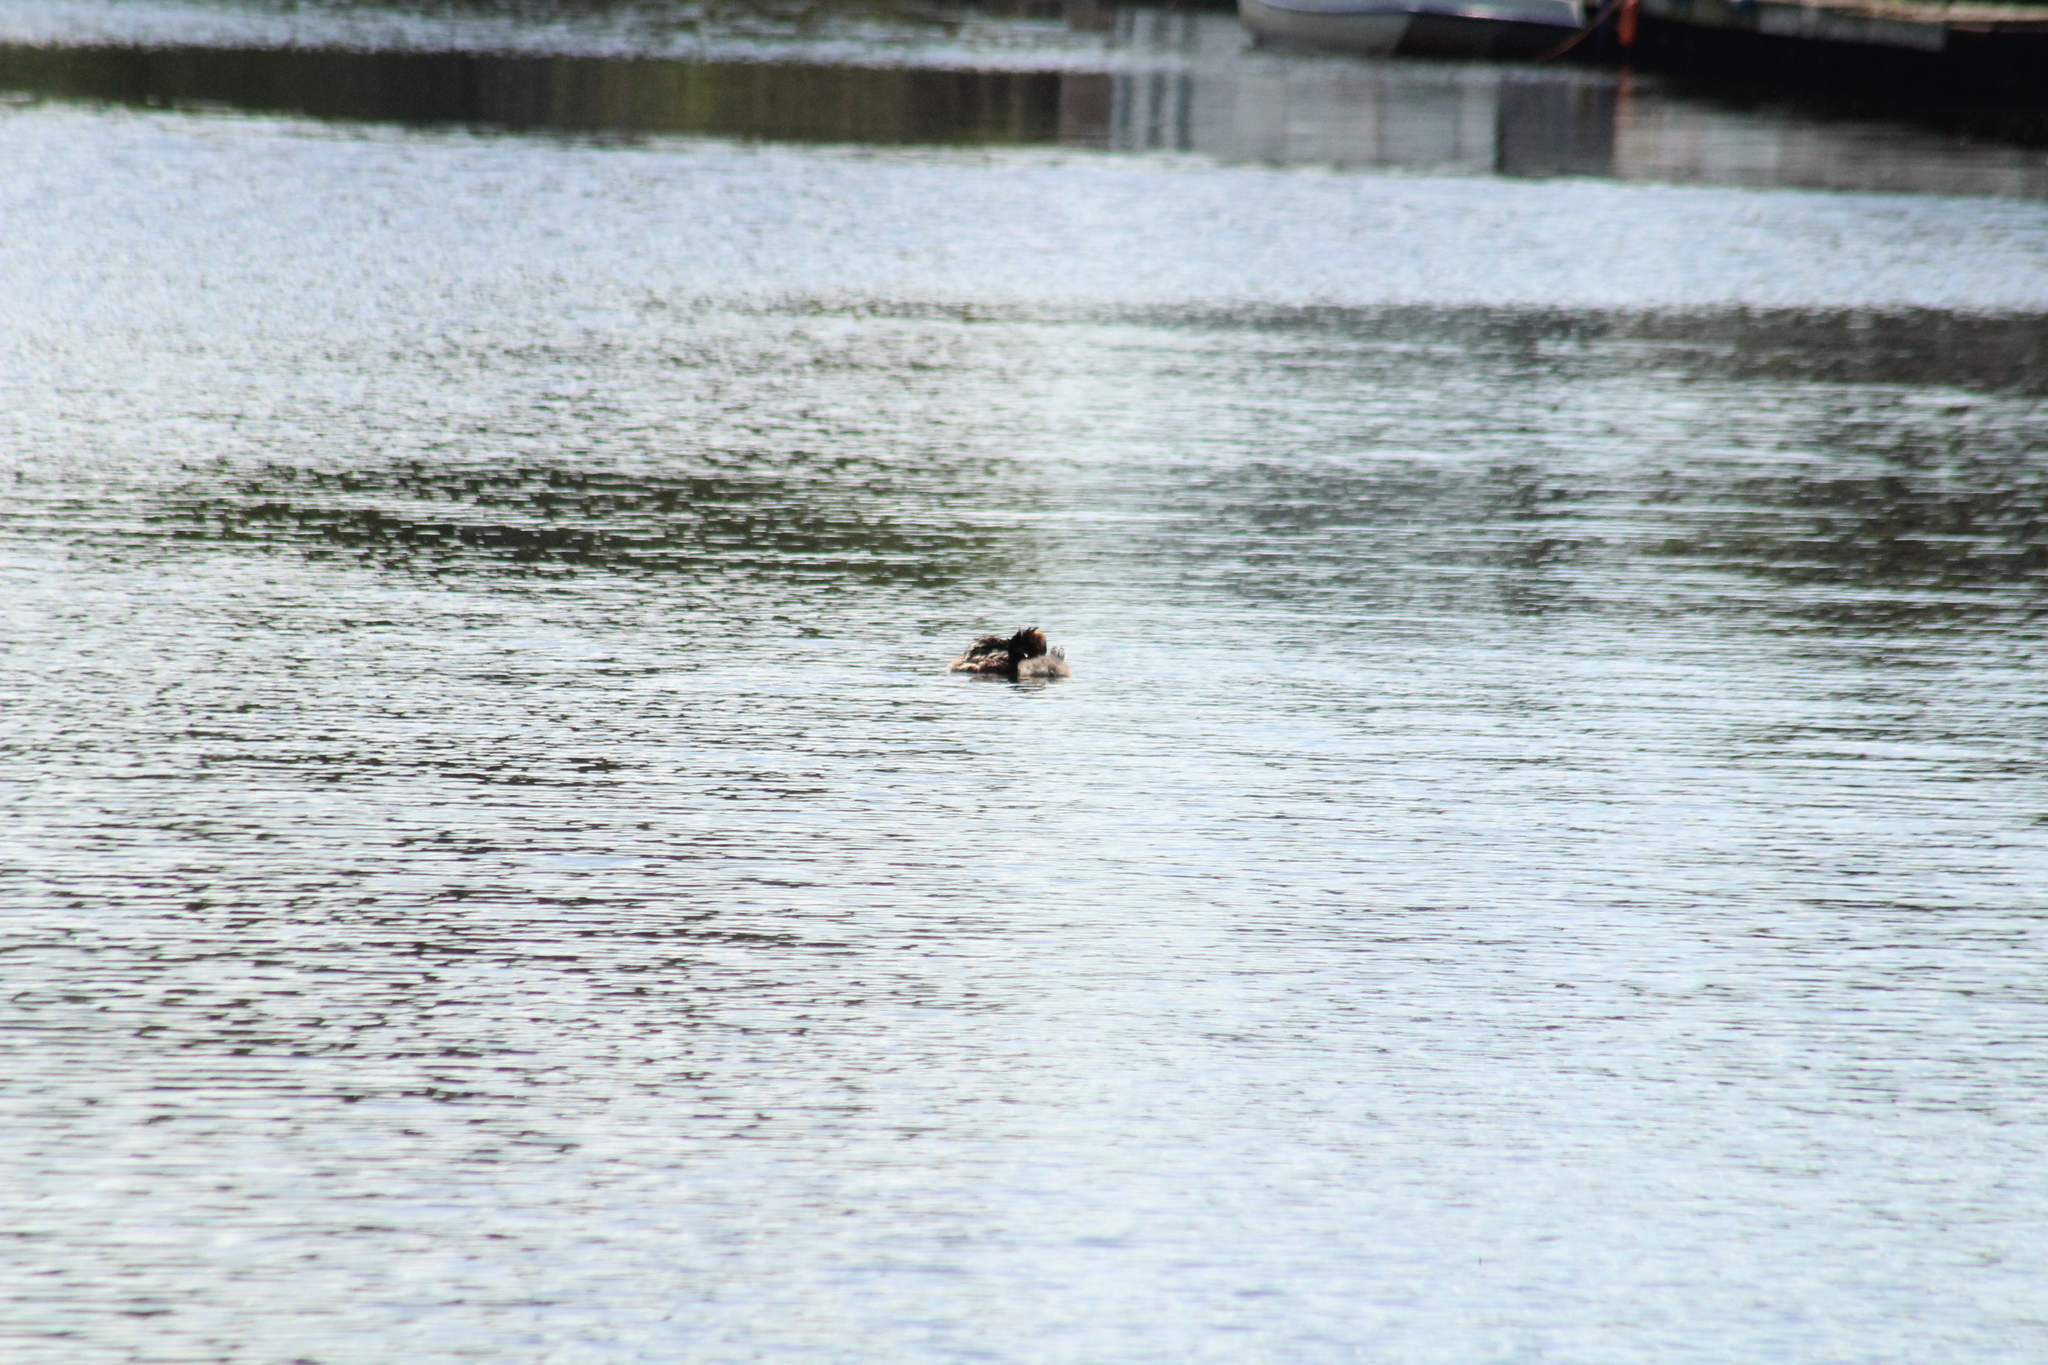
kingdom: Animalia
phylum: Chordata
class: Aves
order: Podicipediformes
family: Podicipedidae
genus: Podiceps
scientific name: Podiceps cristatus
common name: Great crested grebe
